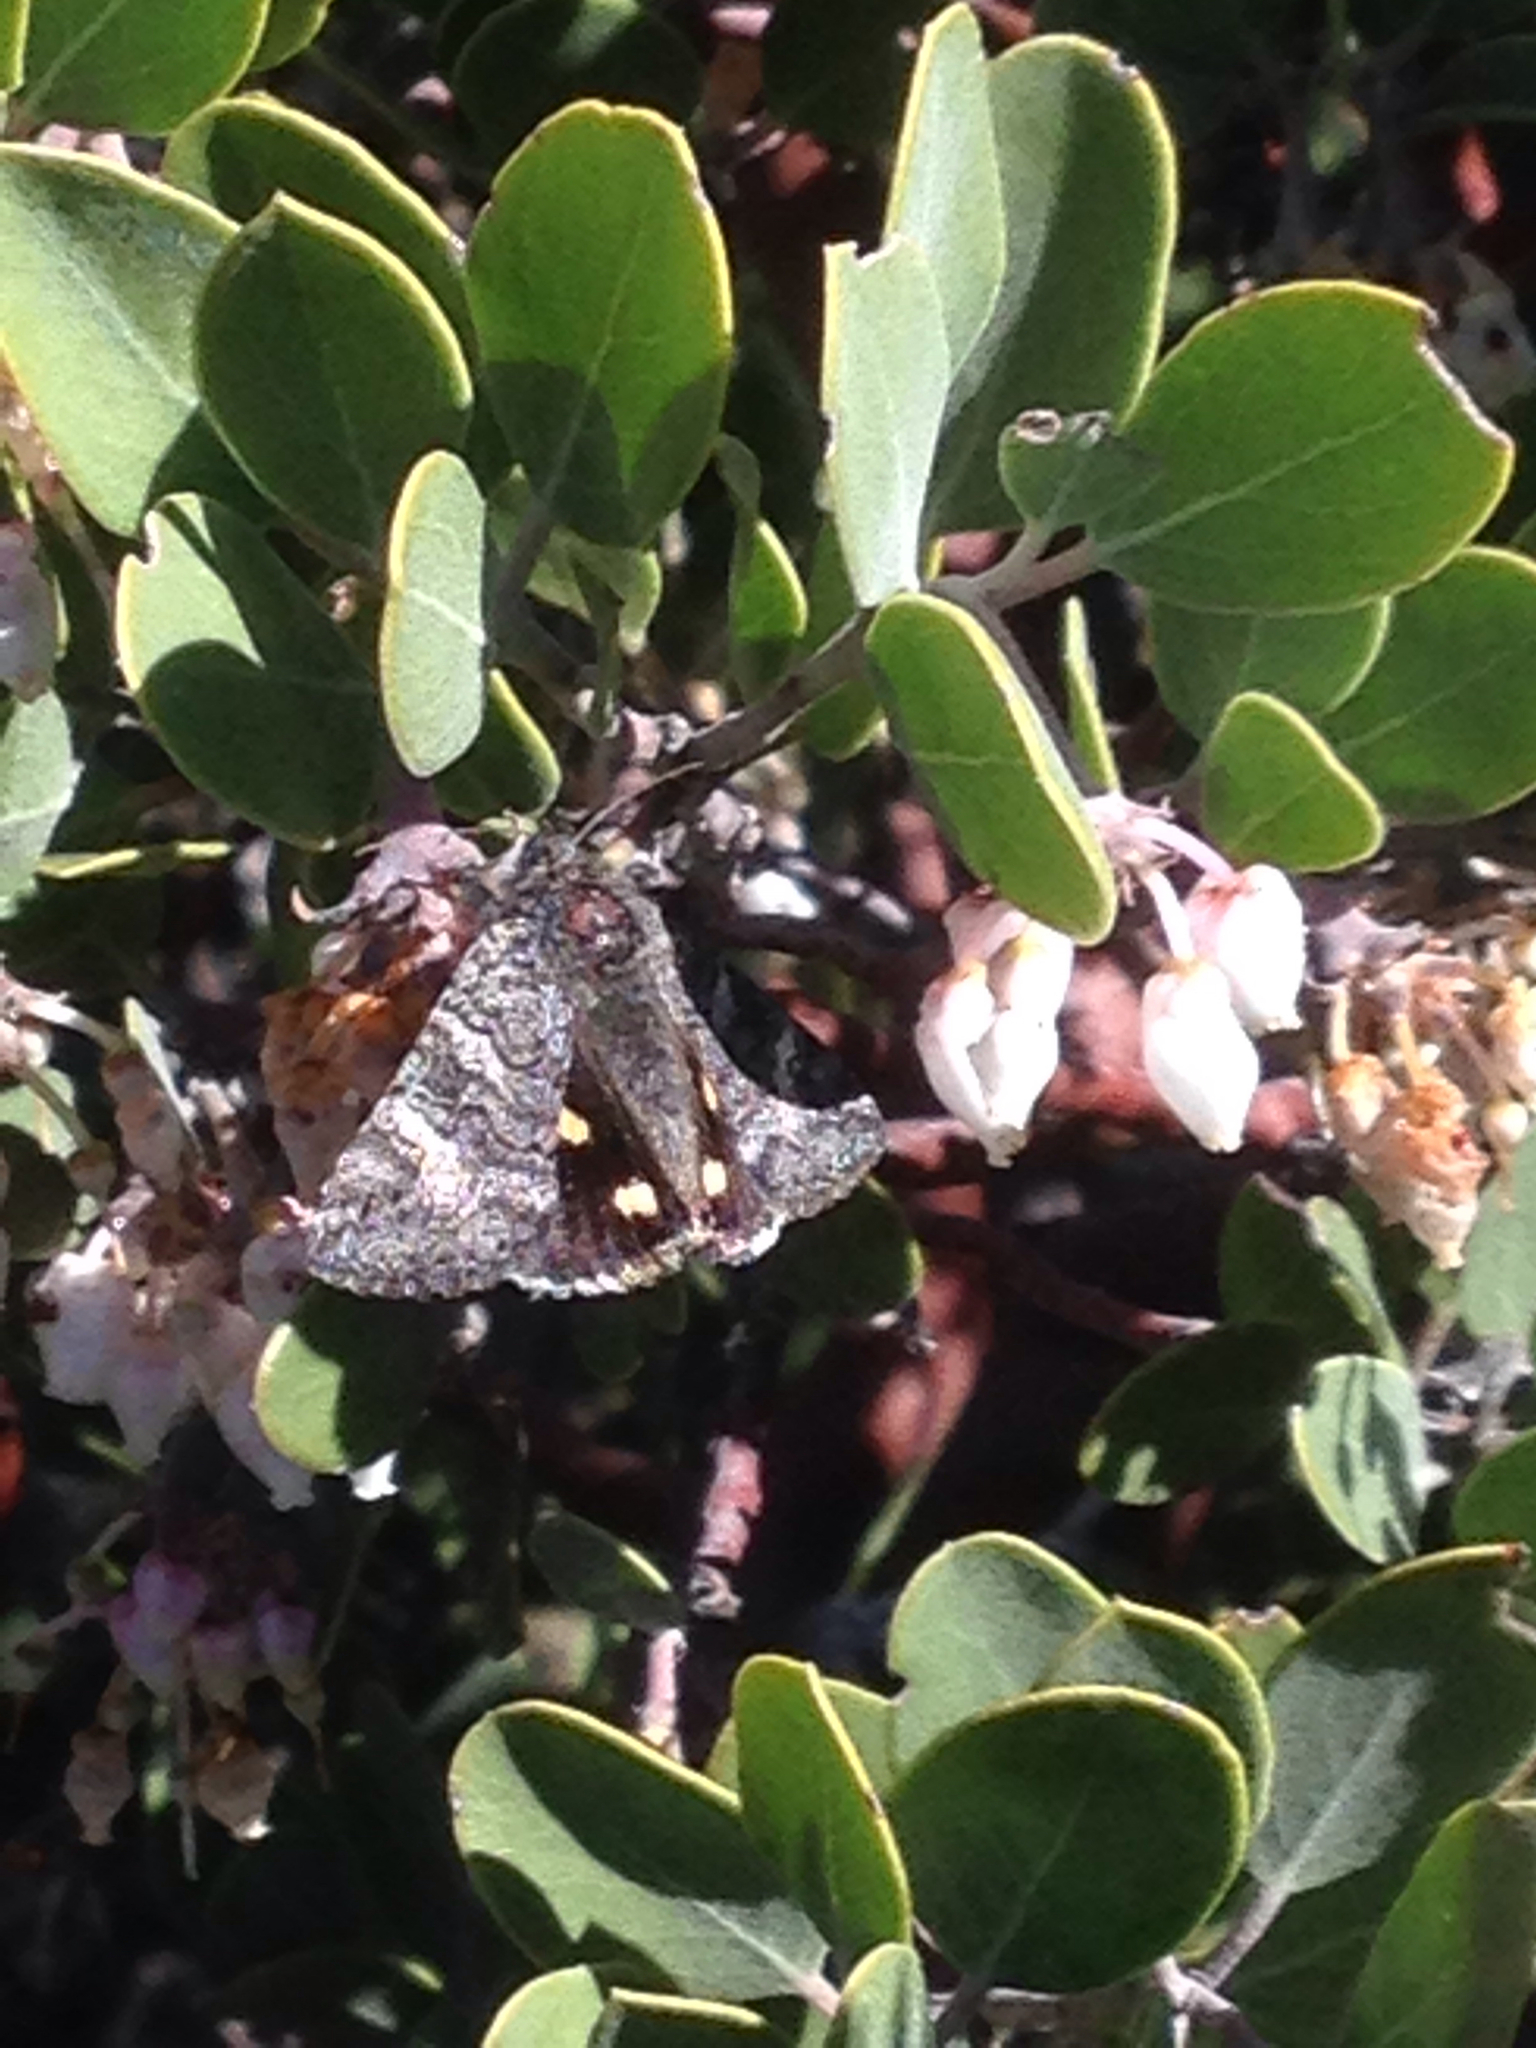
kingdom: Animalia
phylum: Arthropoda
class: Insecta
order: Lepidoptera
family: Erebidae
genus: Litocala
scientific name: Litocala sexsignata
